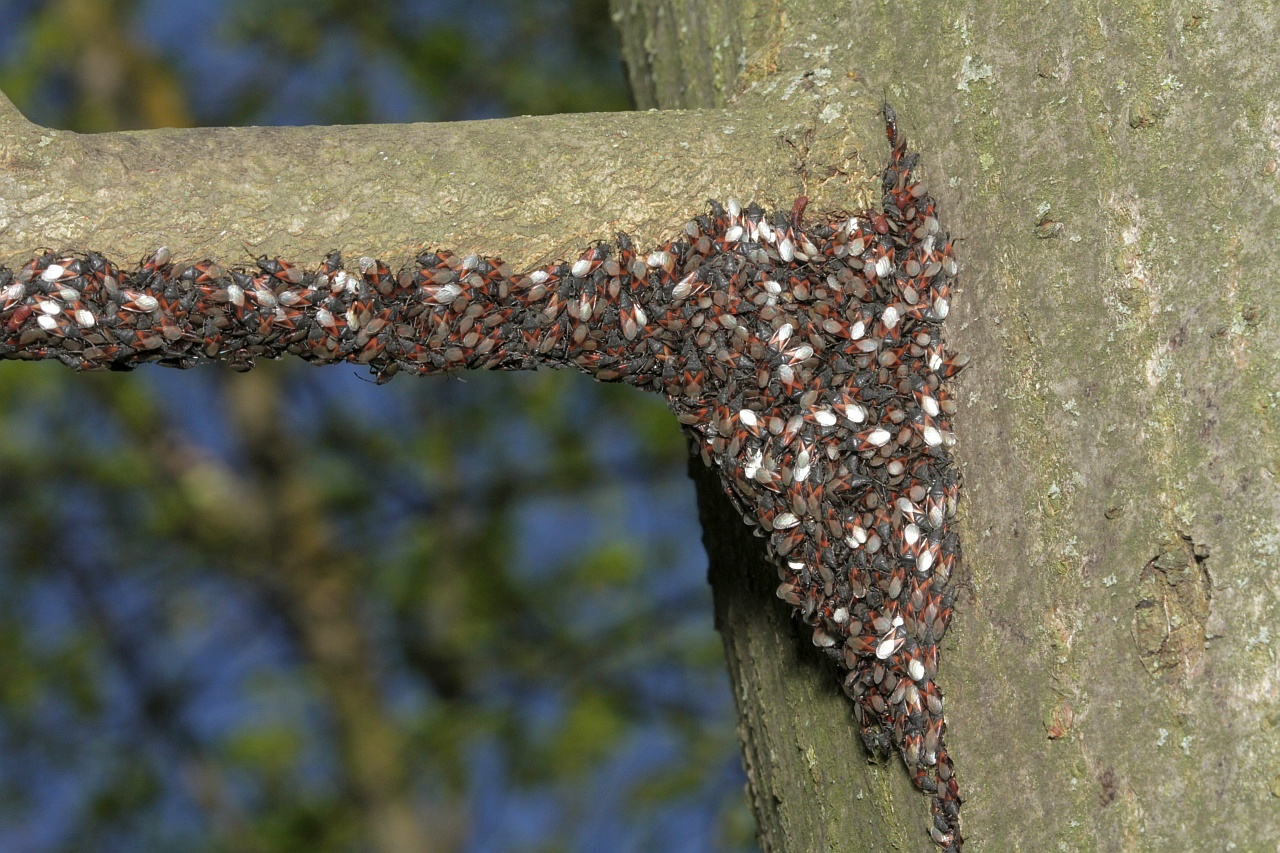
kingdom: Animalia
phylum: Arthropoda
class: Insecta
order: Hemiptera
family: Oxycarenidae
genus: Oxycarenus
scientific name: Oxycarenus lavaterae
